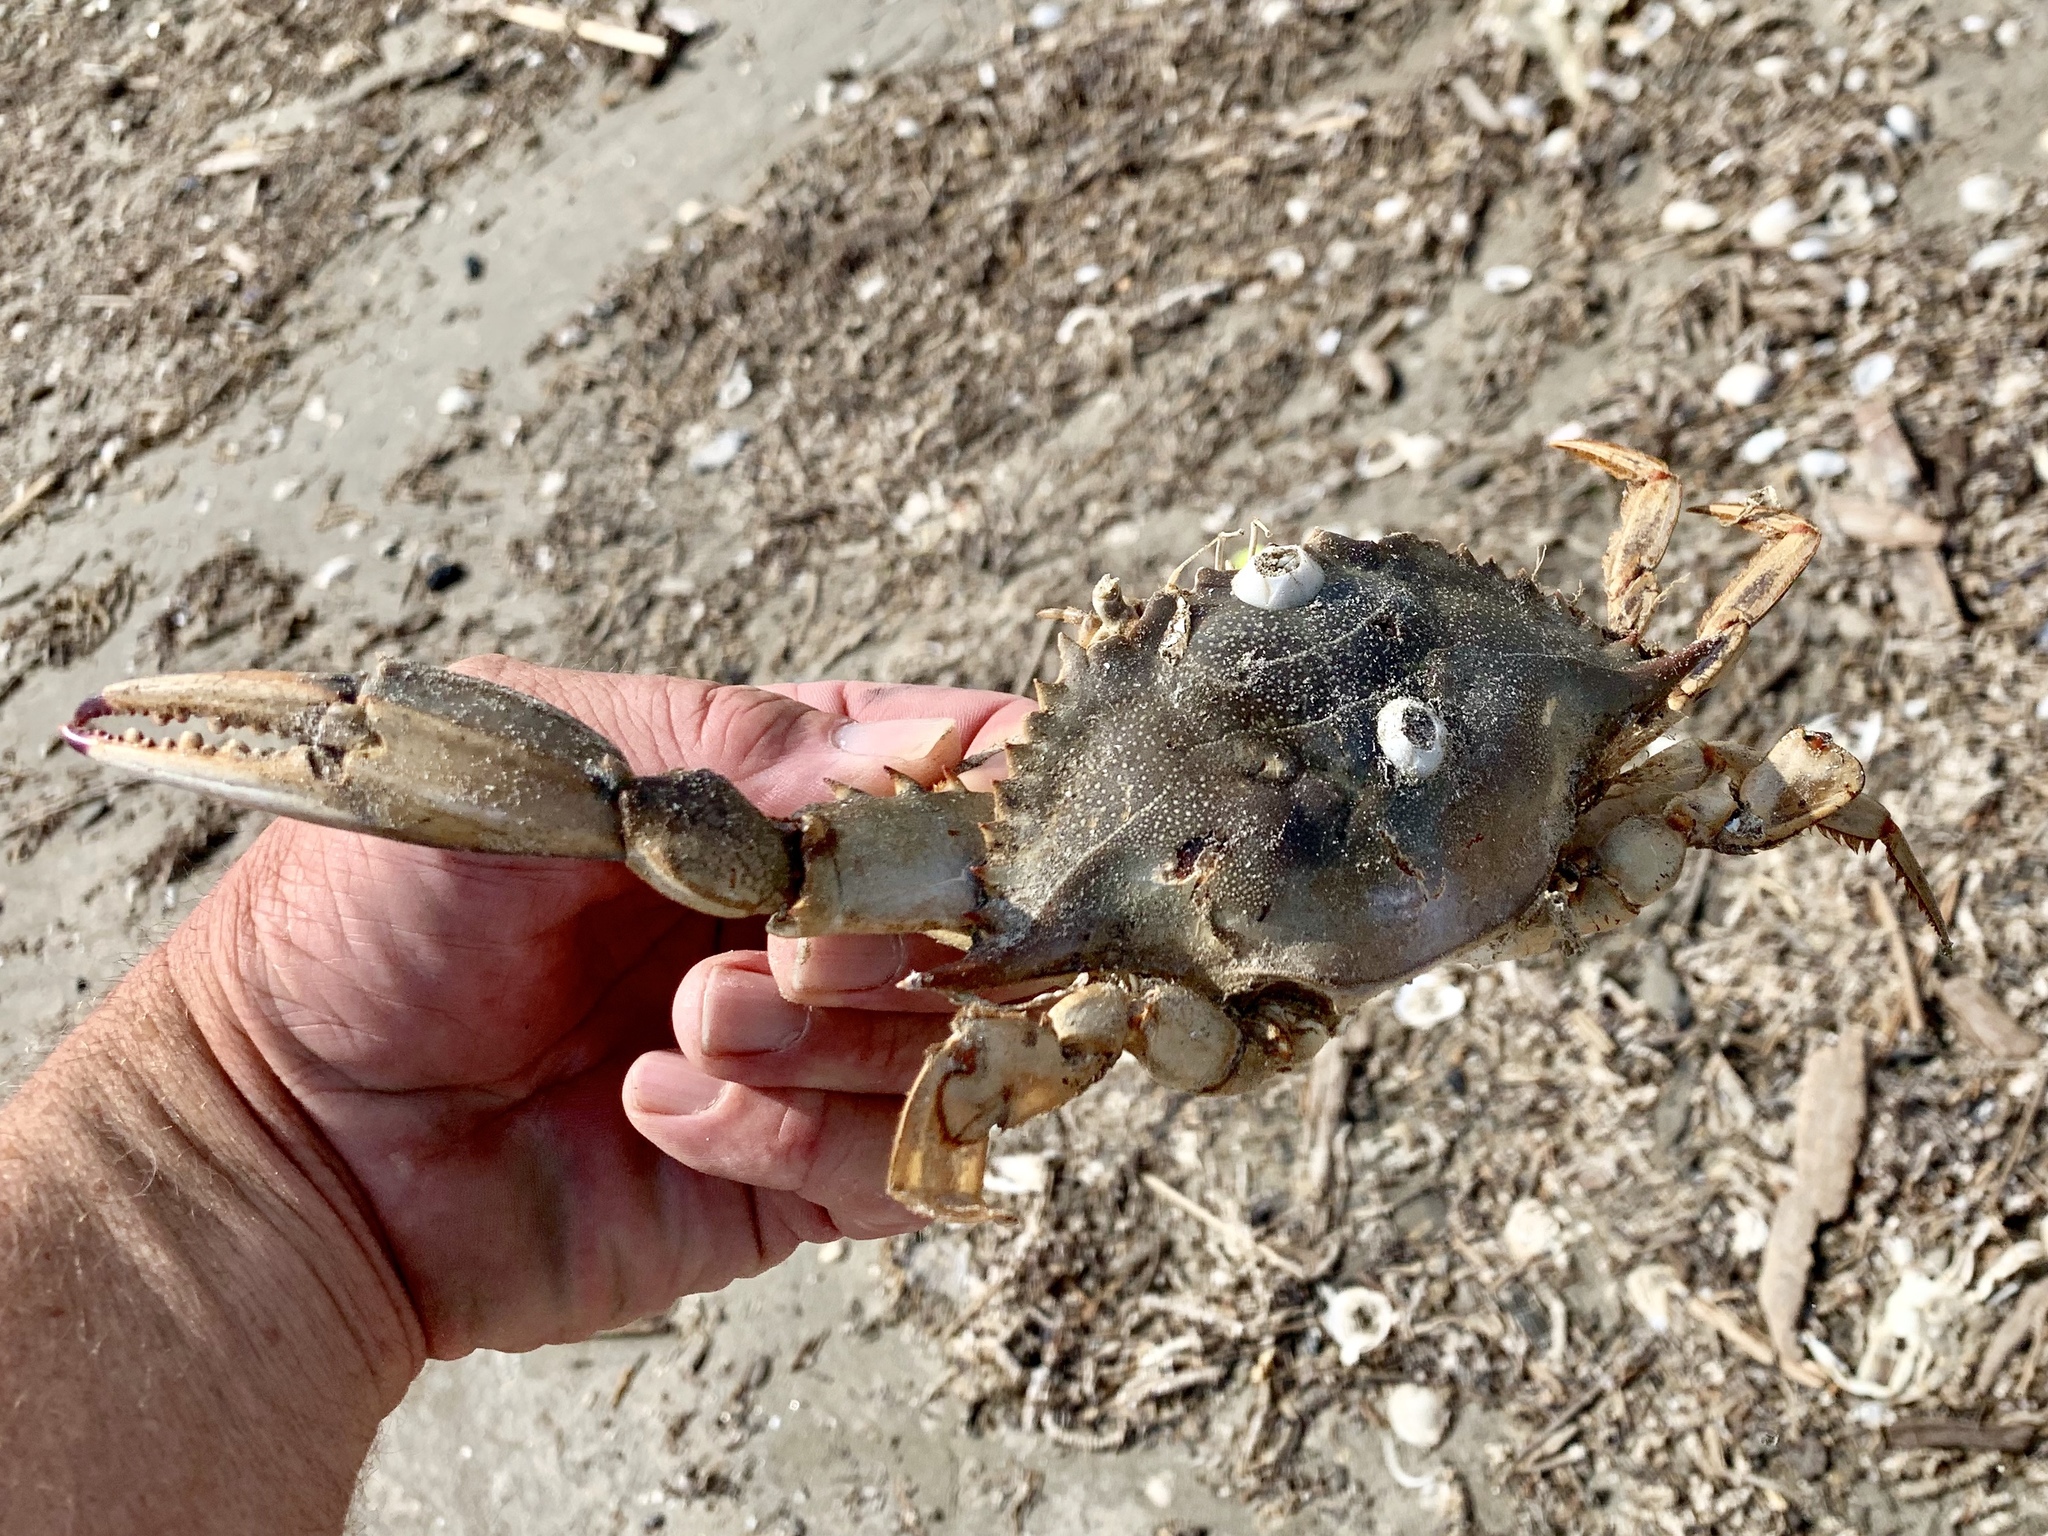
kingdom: Animalia
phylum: Arthropoda
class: Malacostraca
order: Decapoda
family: Portunidae
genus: Callinectes
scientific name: Callinectes sapidus
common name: Blue crab
